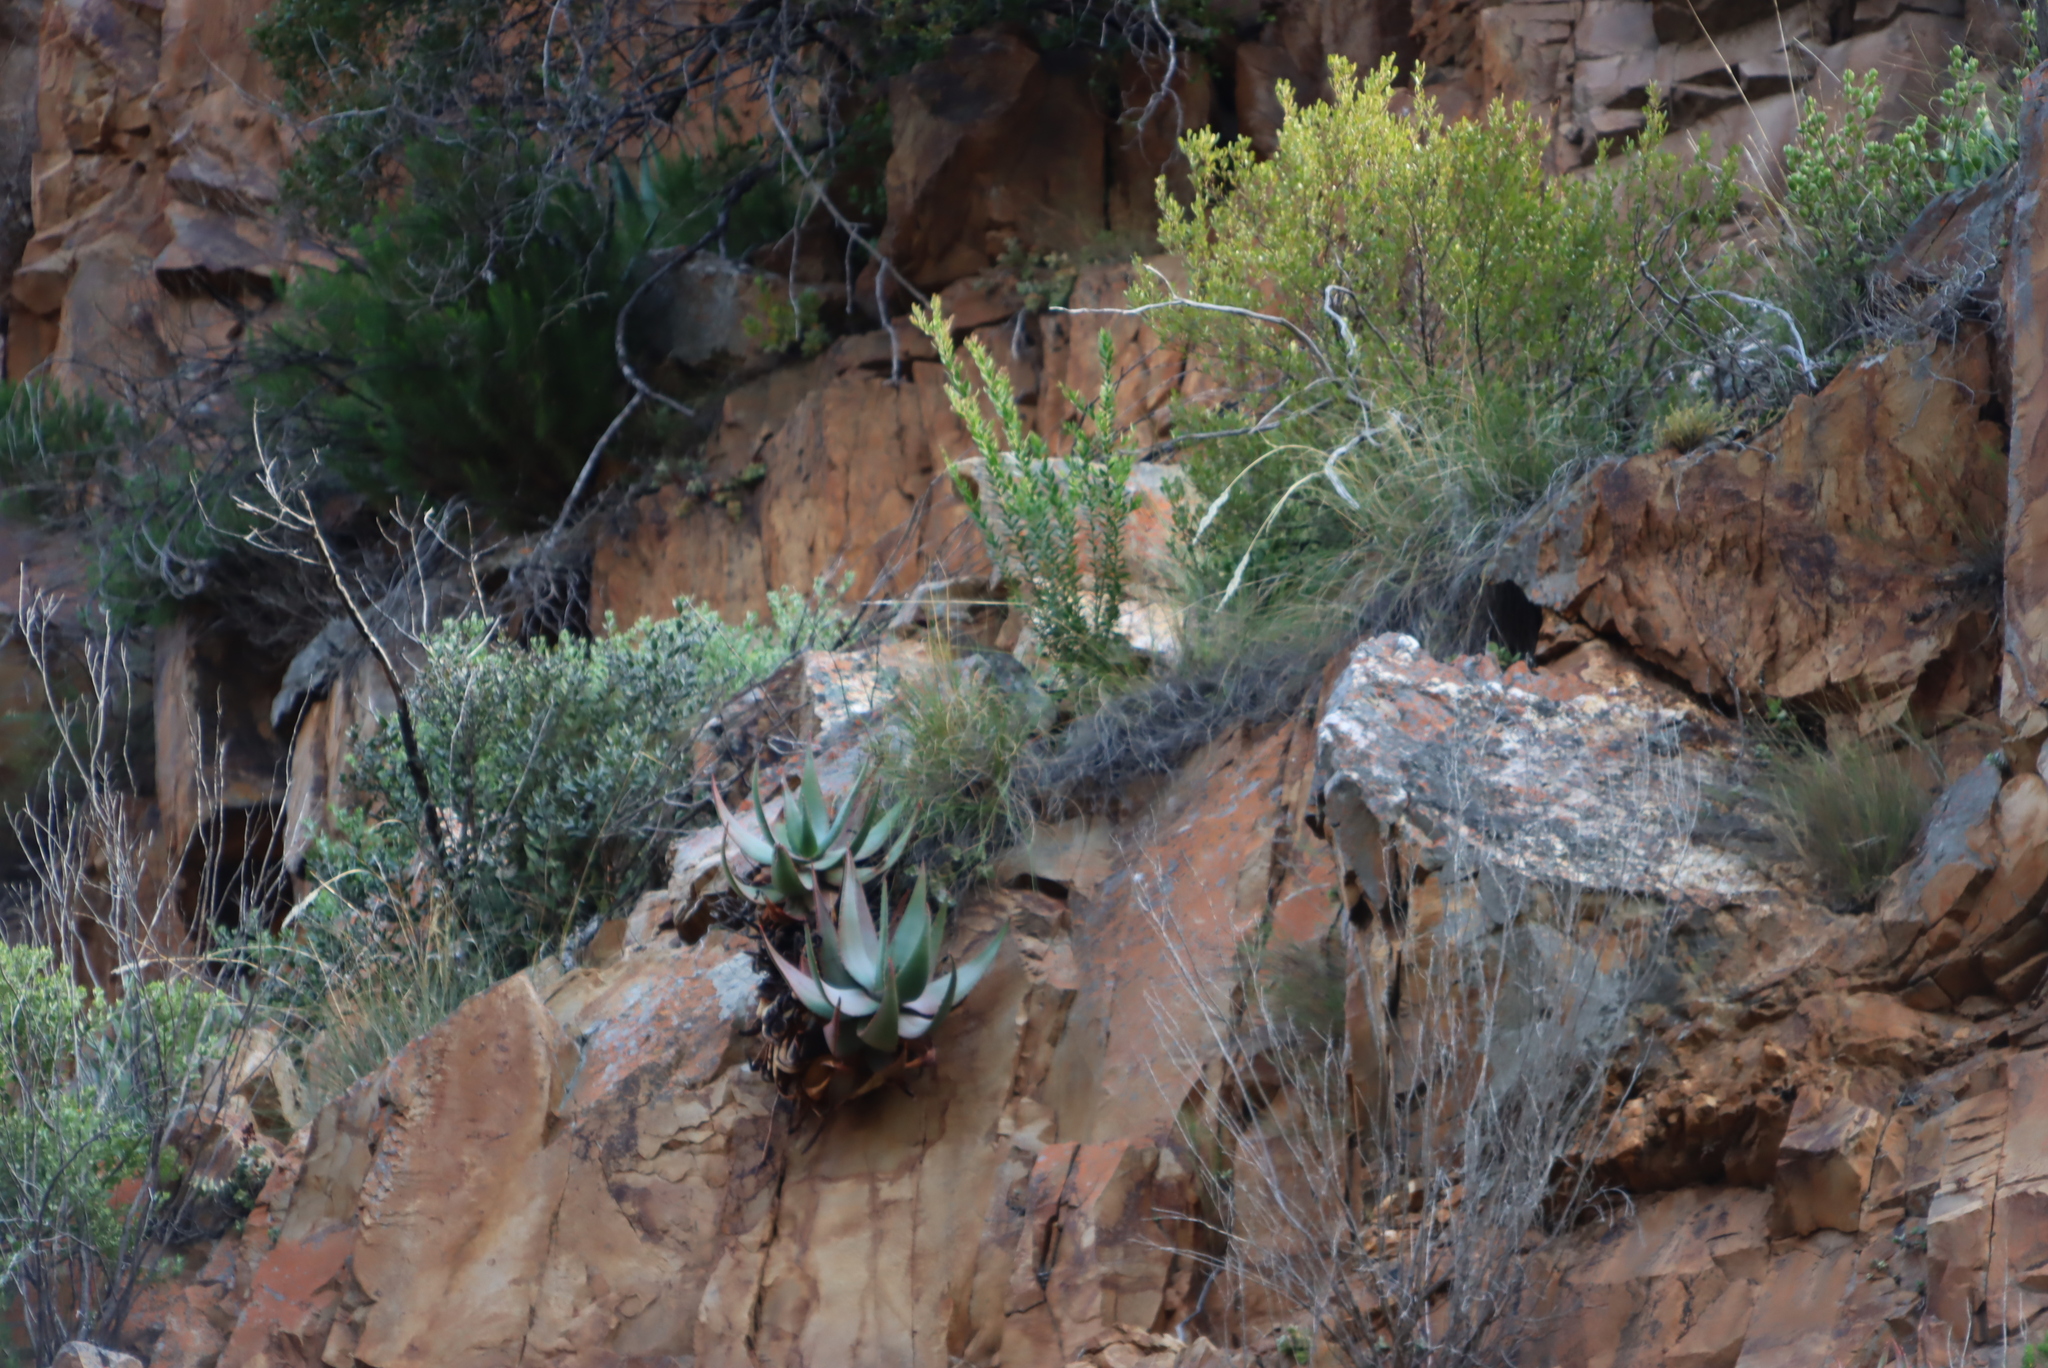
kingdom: Plantae
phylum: Tracheophyta
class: Liliopsida
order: Asparagales
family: Asphodelaceae
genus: Aloe
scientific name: Aloe comptonii
